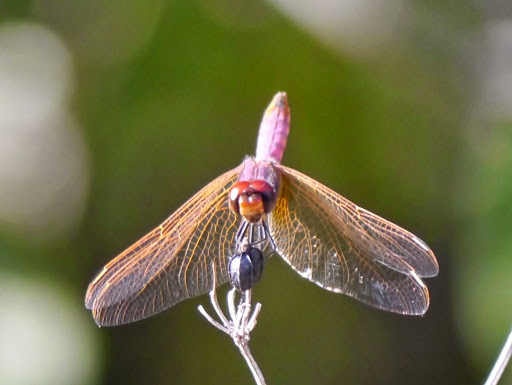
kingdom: Animalia
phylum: Arthropoda
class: Insecta
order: Odonata
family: Libellulidae
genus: Trithemis
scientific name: Trithemis annulata
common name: Violet dropwing
